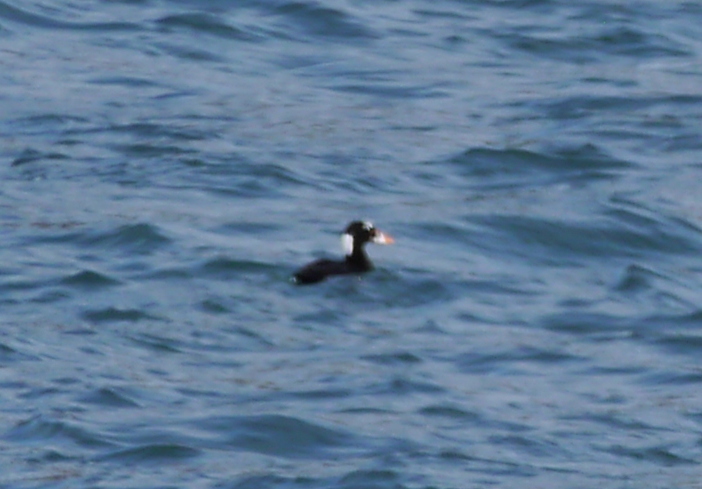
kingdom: Animalia
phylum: Chordata
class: Aves
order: Anseriformes
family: Anatidae
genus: Melanitta
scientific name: Melanitta perspicillata
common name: Surf scoter
